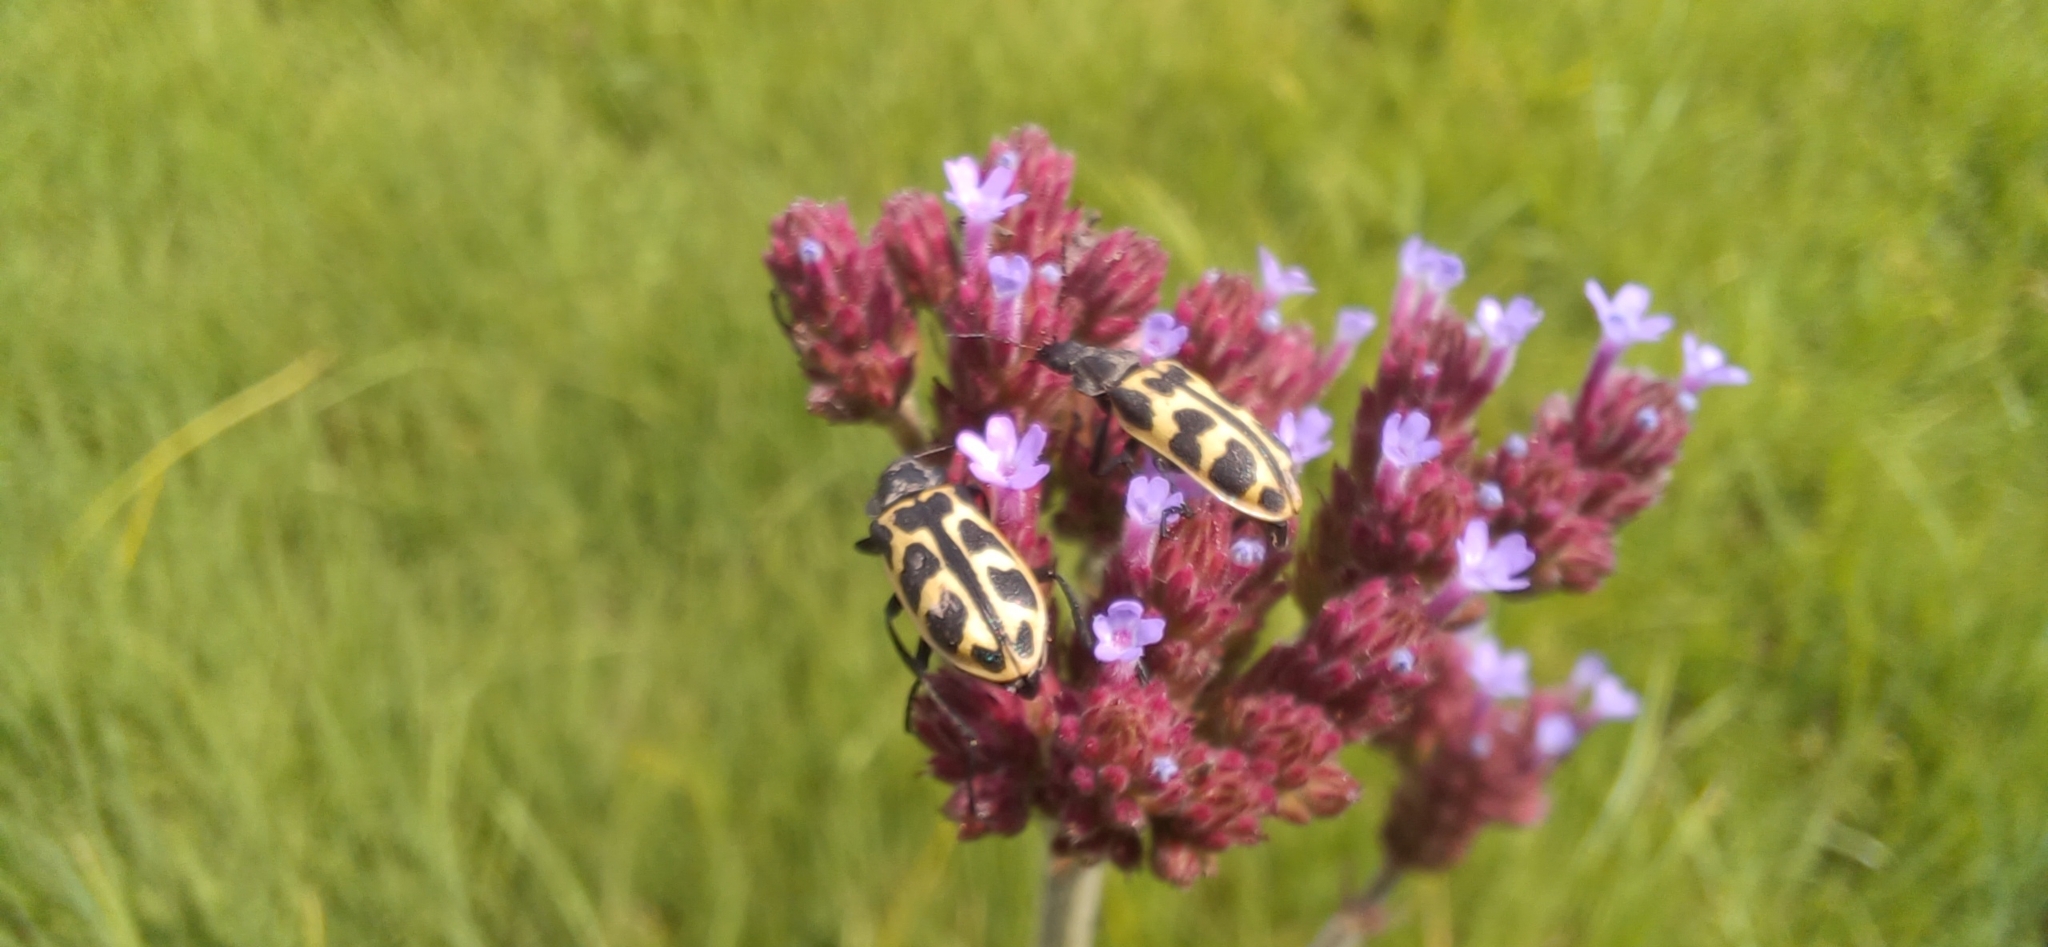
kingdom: Animalia
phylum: Arthropoda
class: Insecta
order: Coleoptera
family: Melyridae
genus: Astylus
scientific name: Astylus atromaculatus
